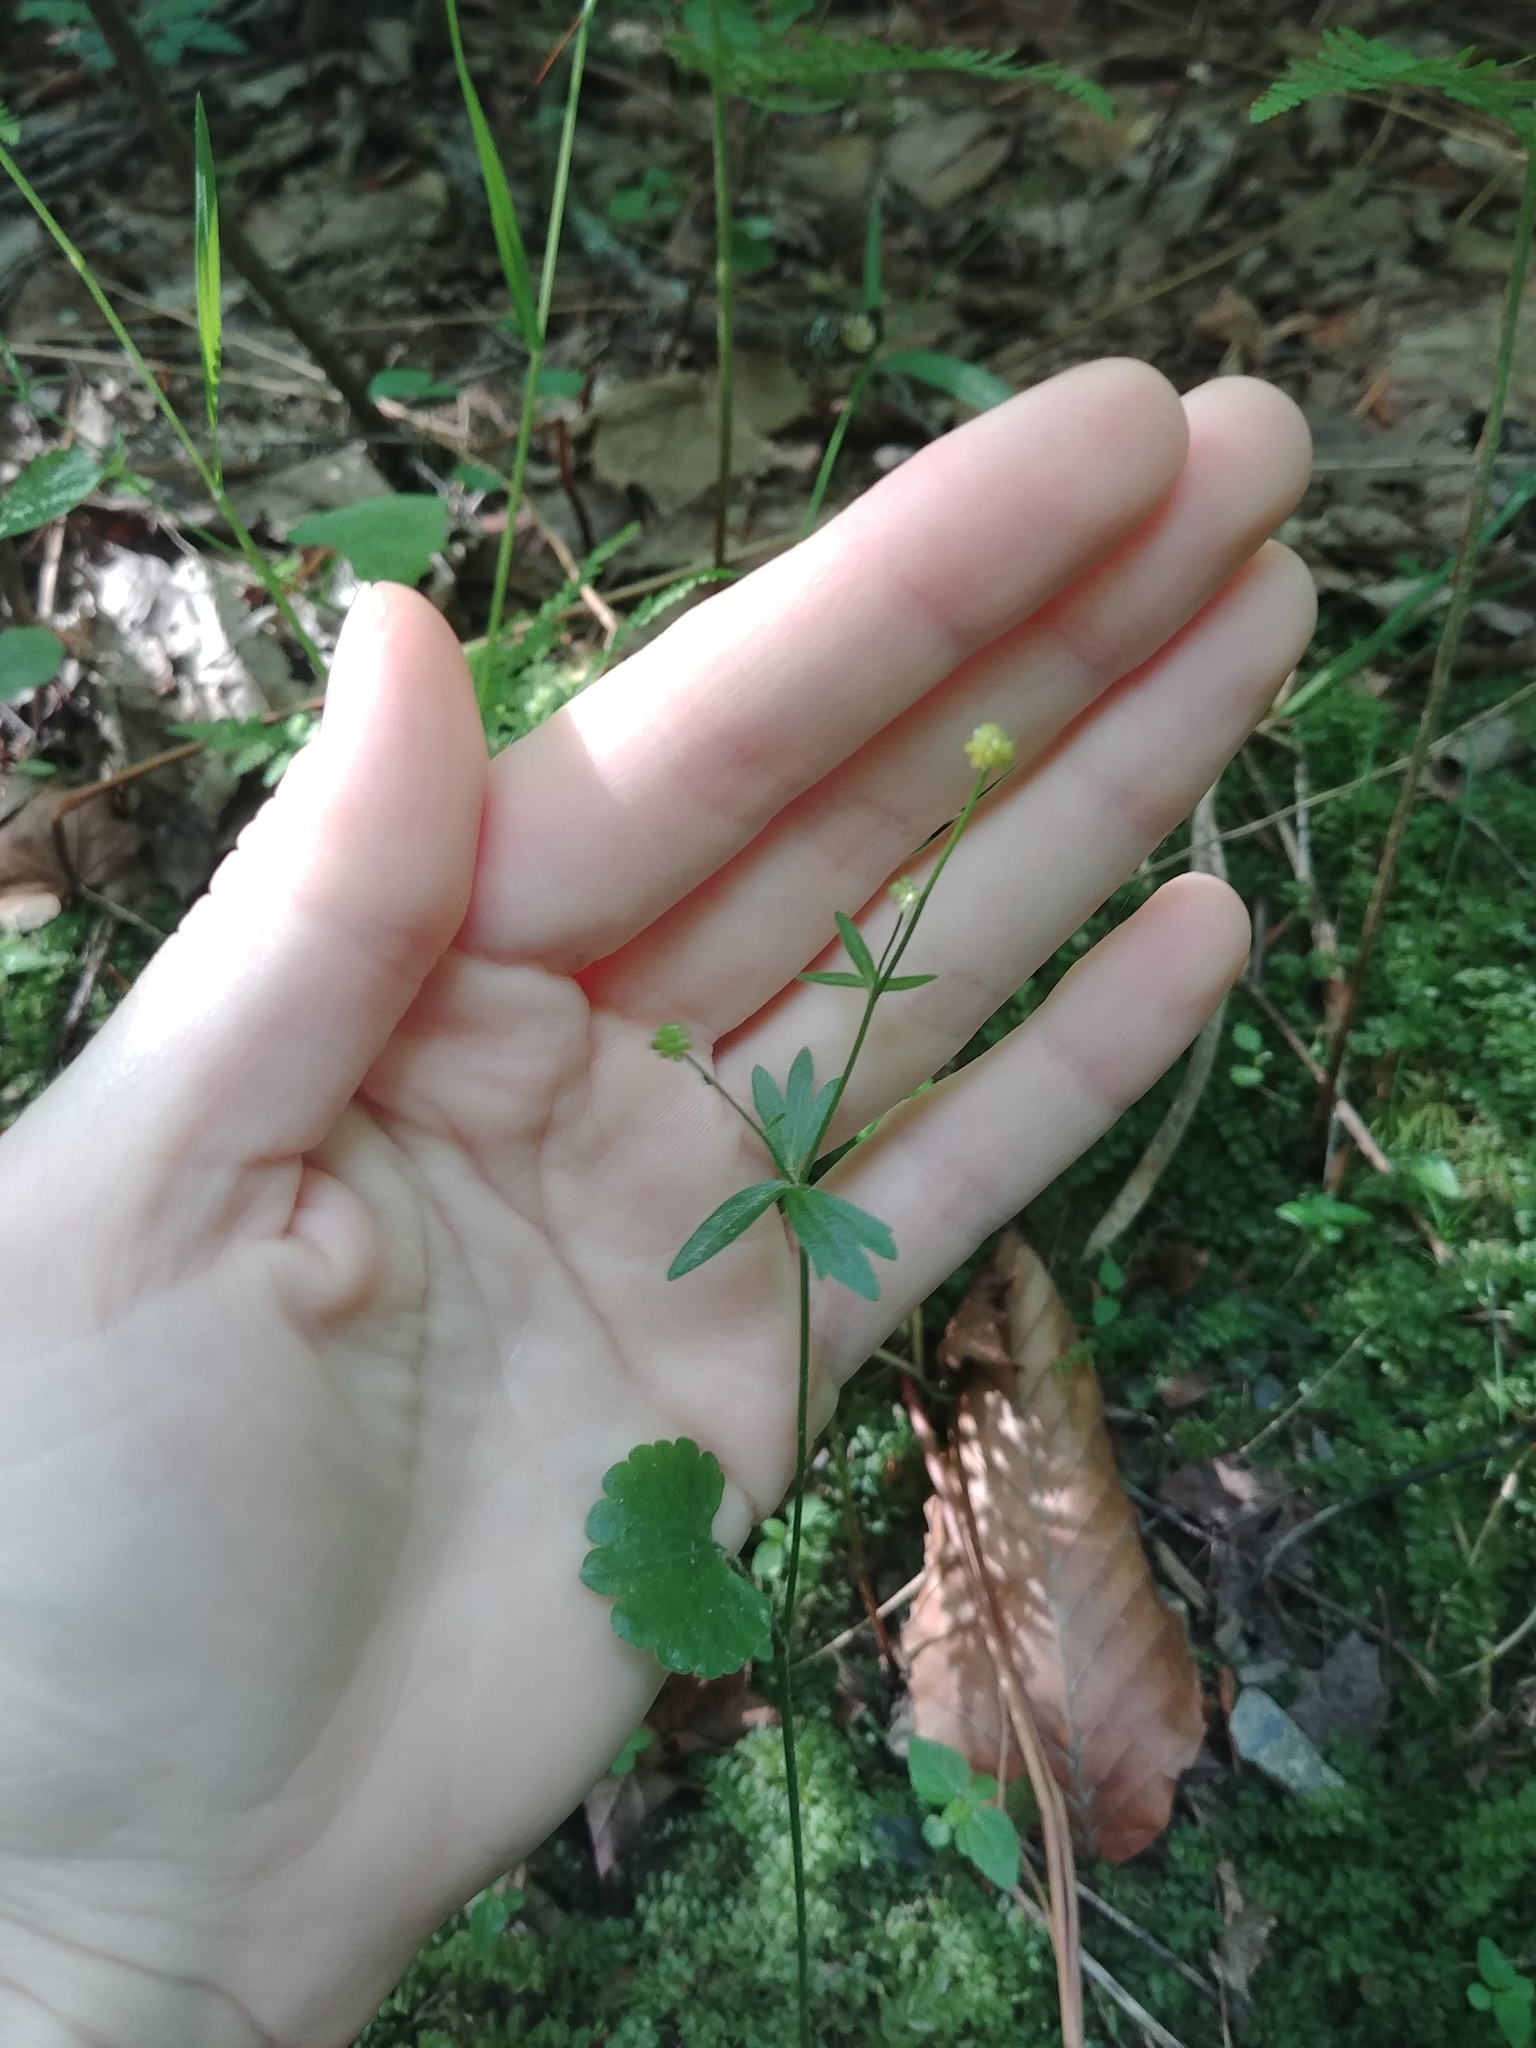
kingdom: Plantae
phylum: Tracheophyta
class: Magnoliopsida
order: Ranunculales
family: Ranunculaceae
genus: Ranunculus
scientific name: Ranunculus abortivus
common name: Early wood buttercup
